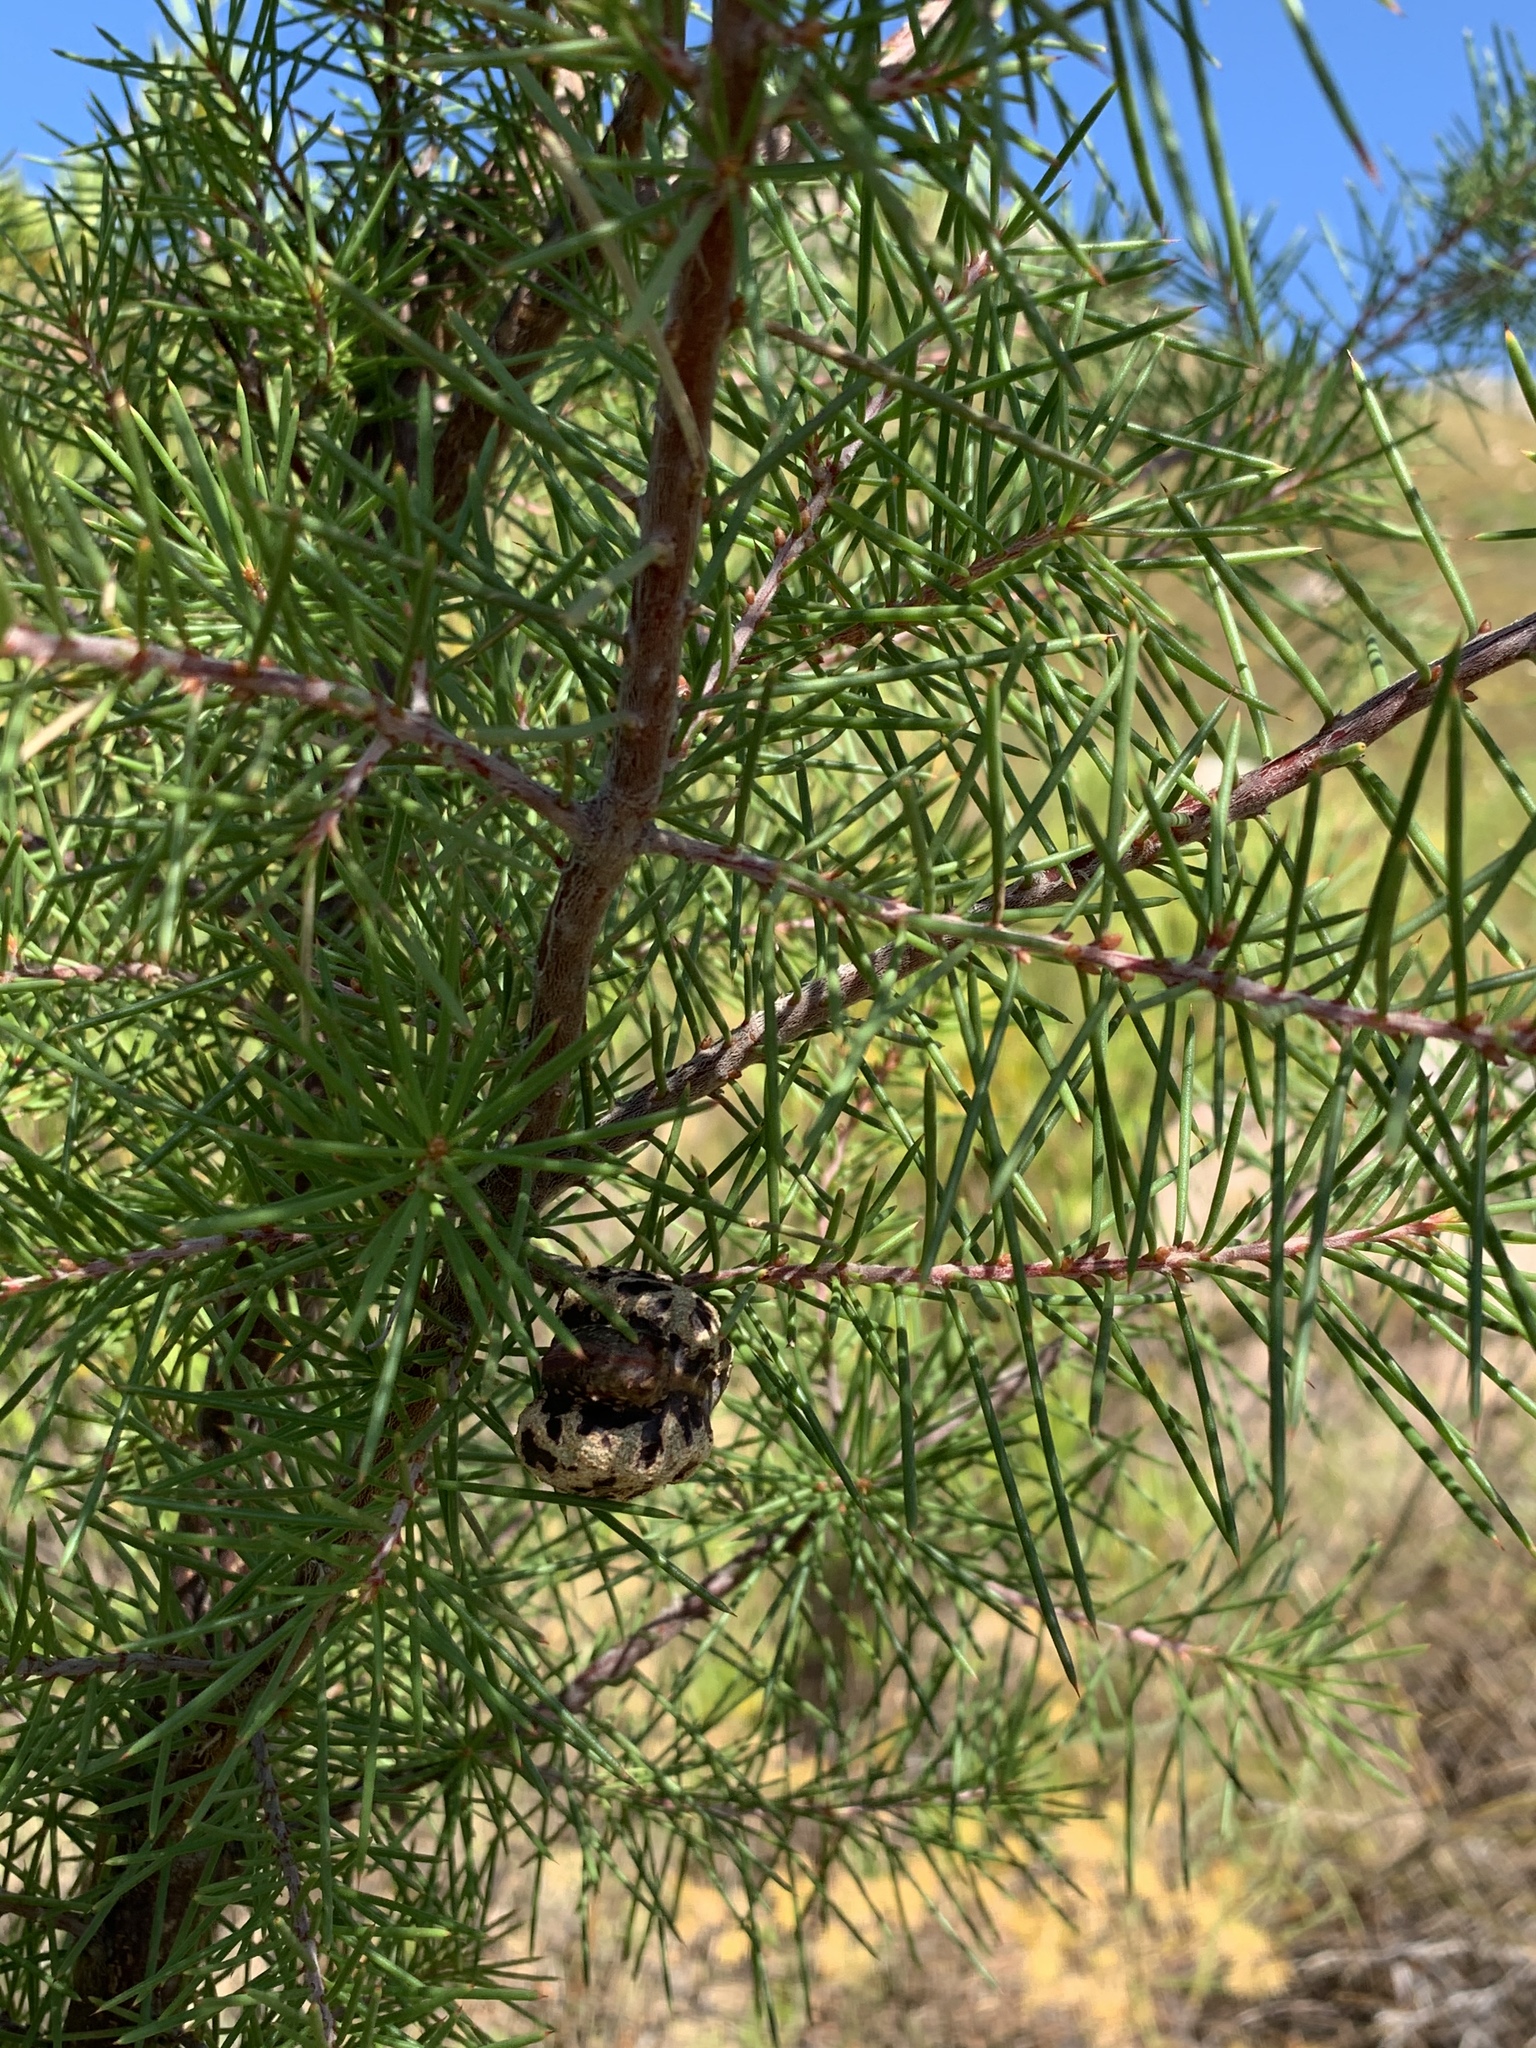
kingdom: Plantae
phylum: Tracheophyta
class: Magnoliopsida
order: Proteales
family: Proteaceae
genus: Hakea
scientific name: Hakea sericea
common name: Needle bush
